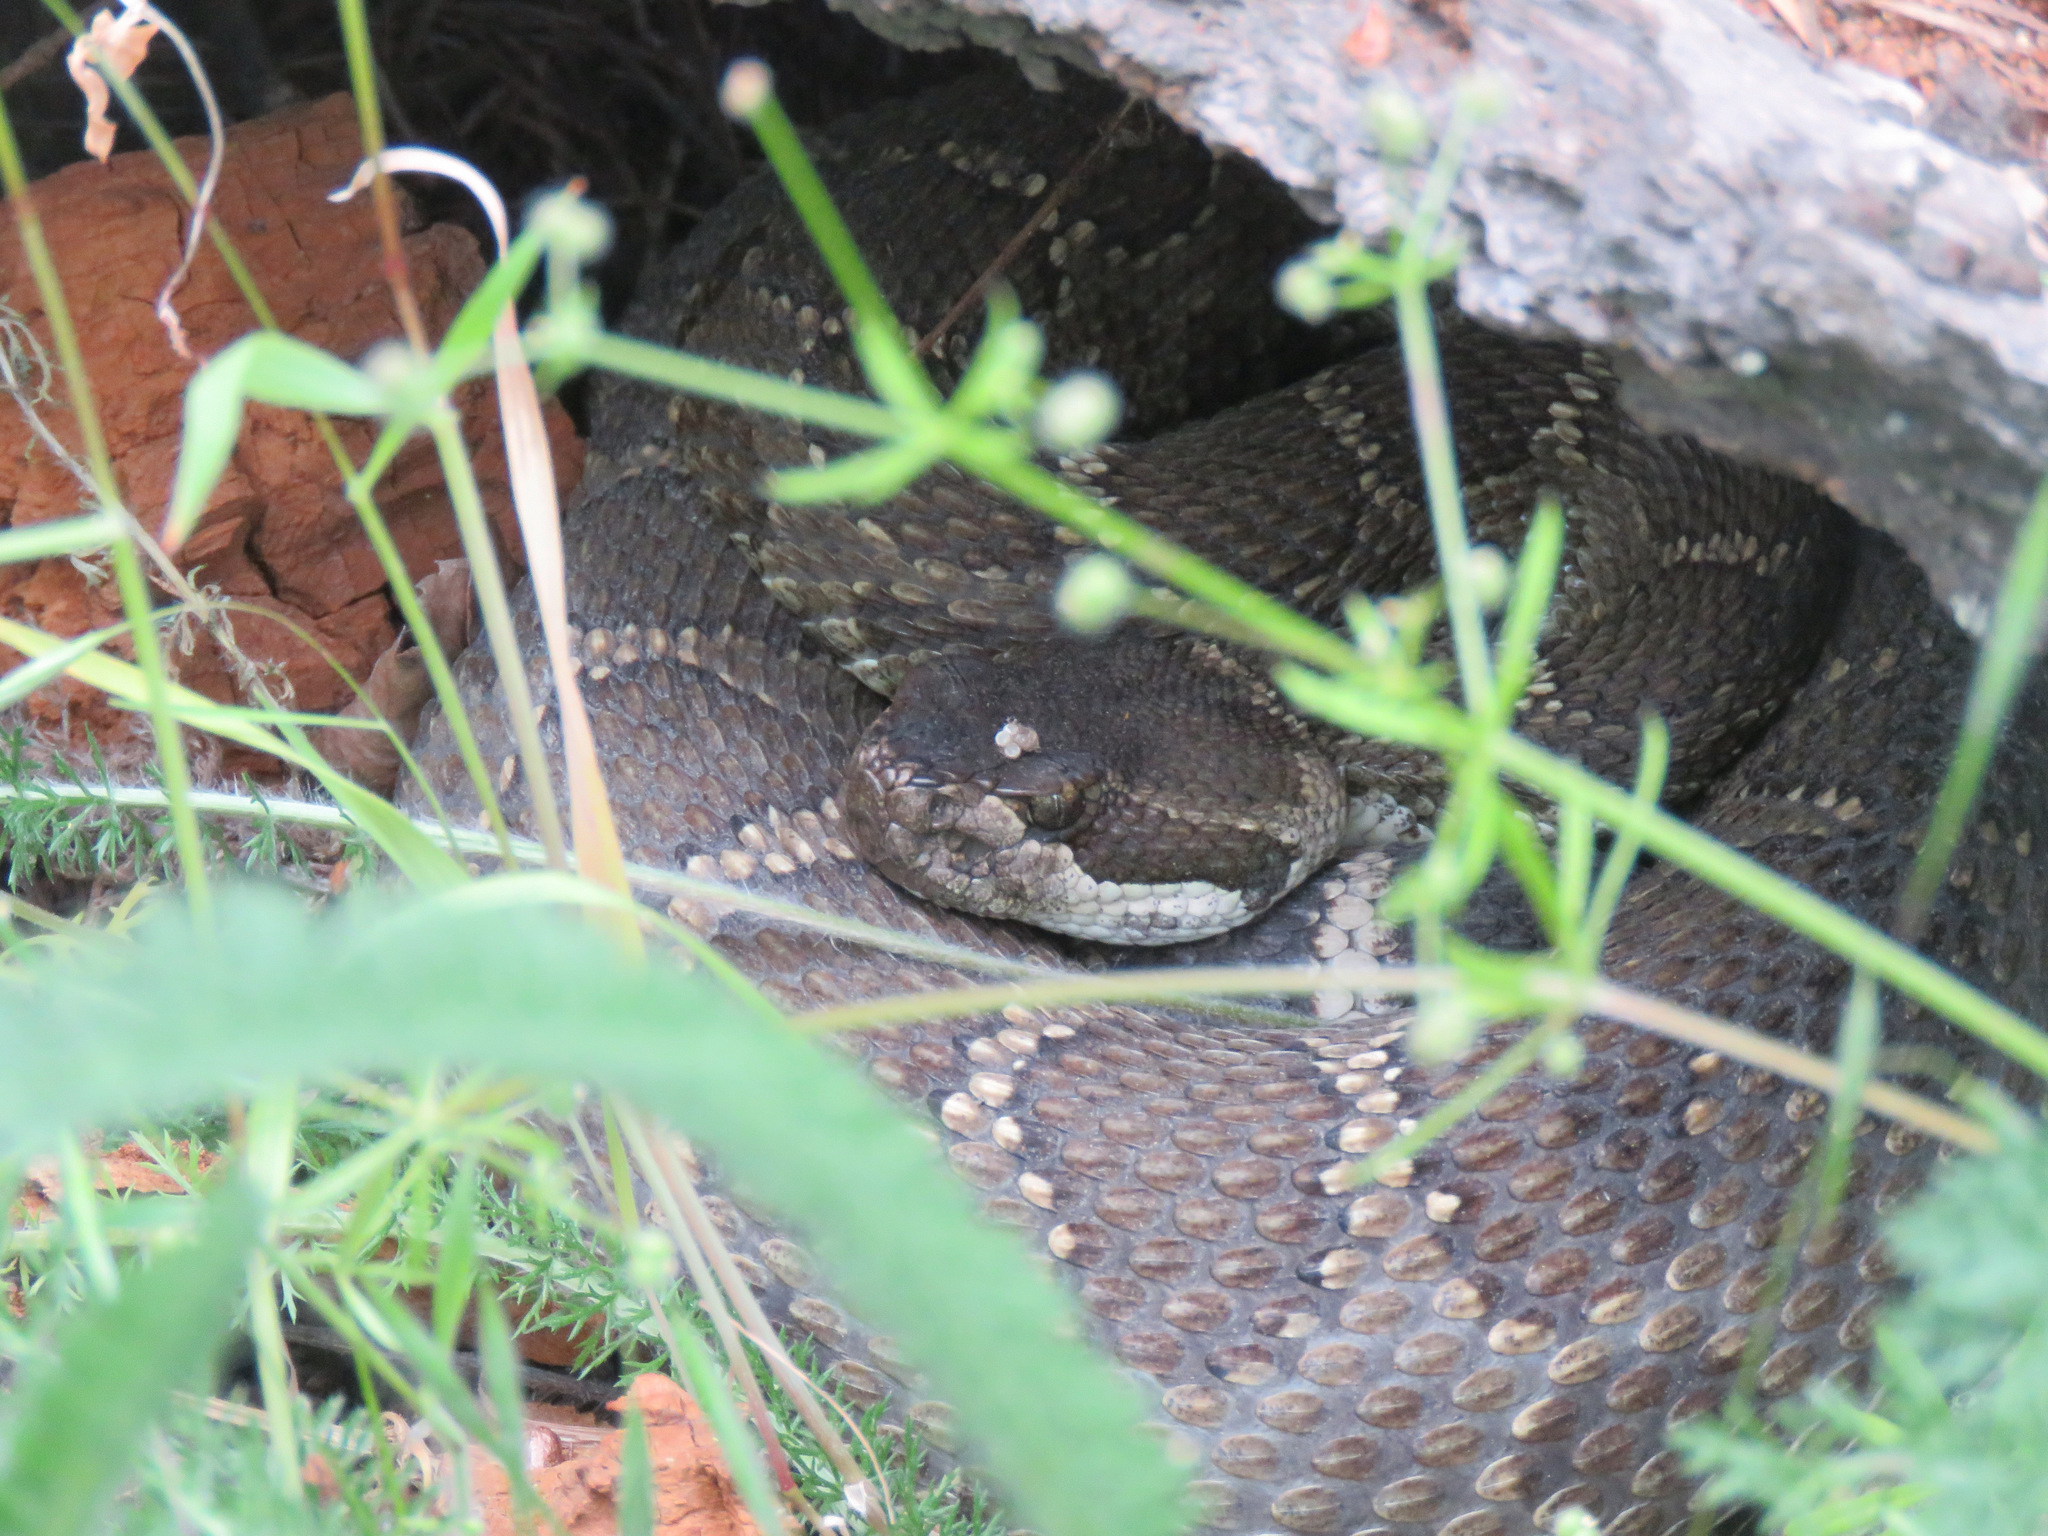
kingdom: Animalia
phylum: Chordata
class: Squamata
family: Viperidae
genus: Crotalus
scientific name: Crotalus oreganus
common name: Abyssus
